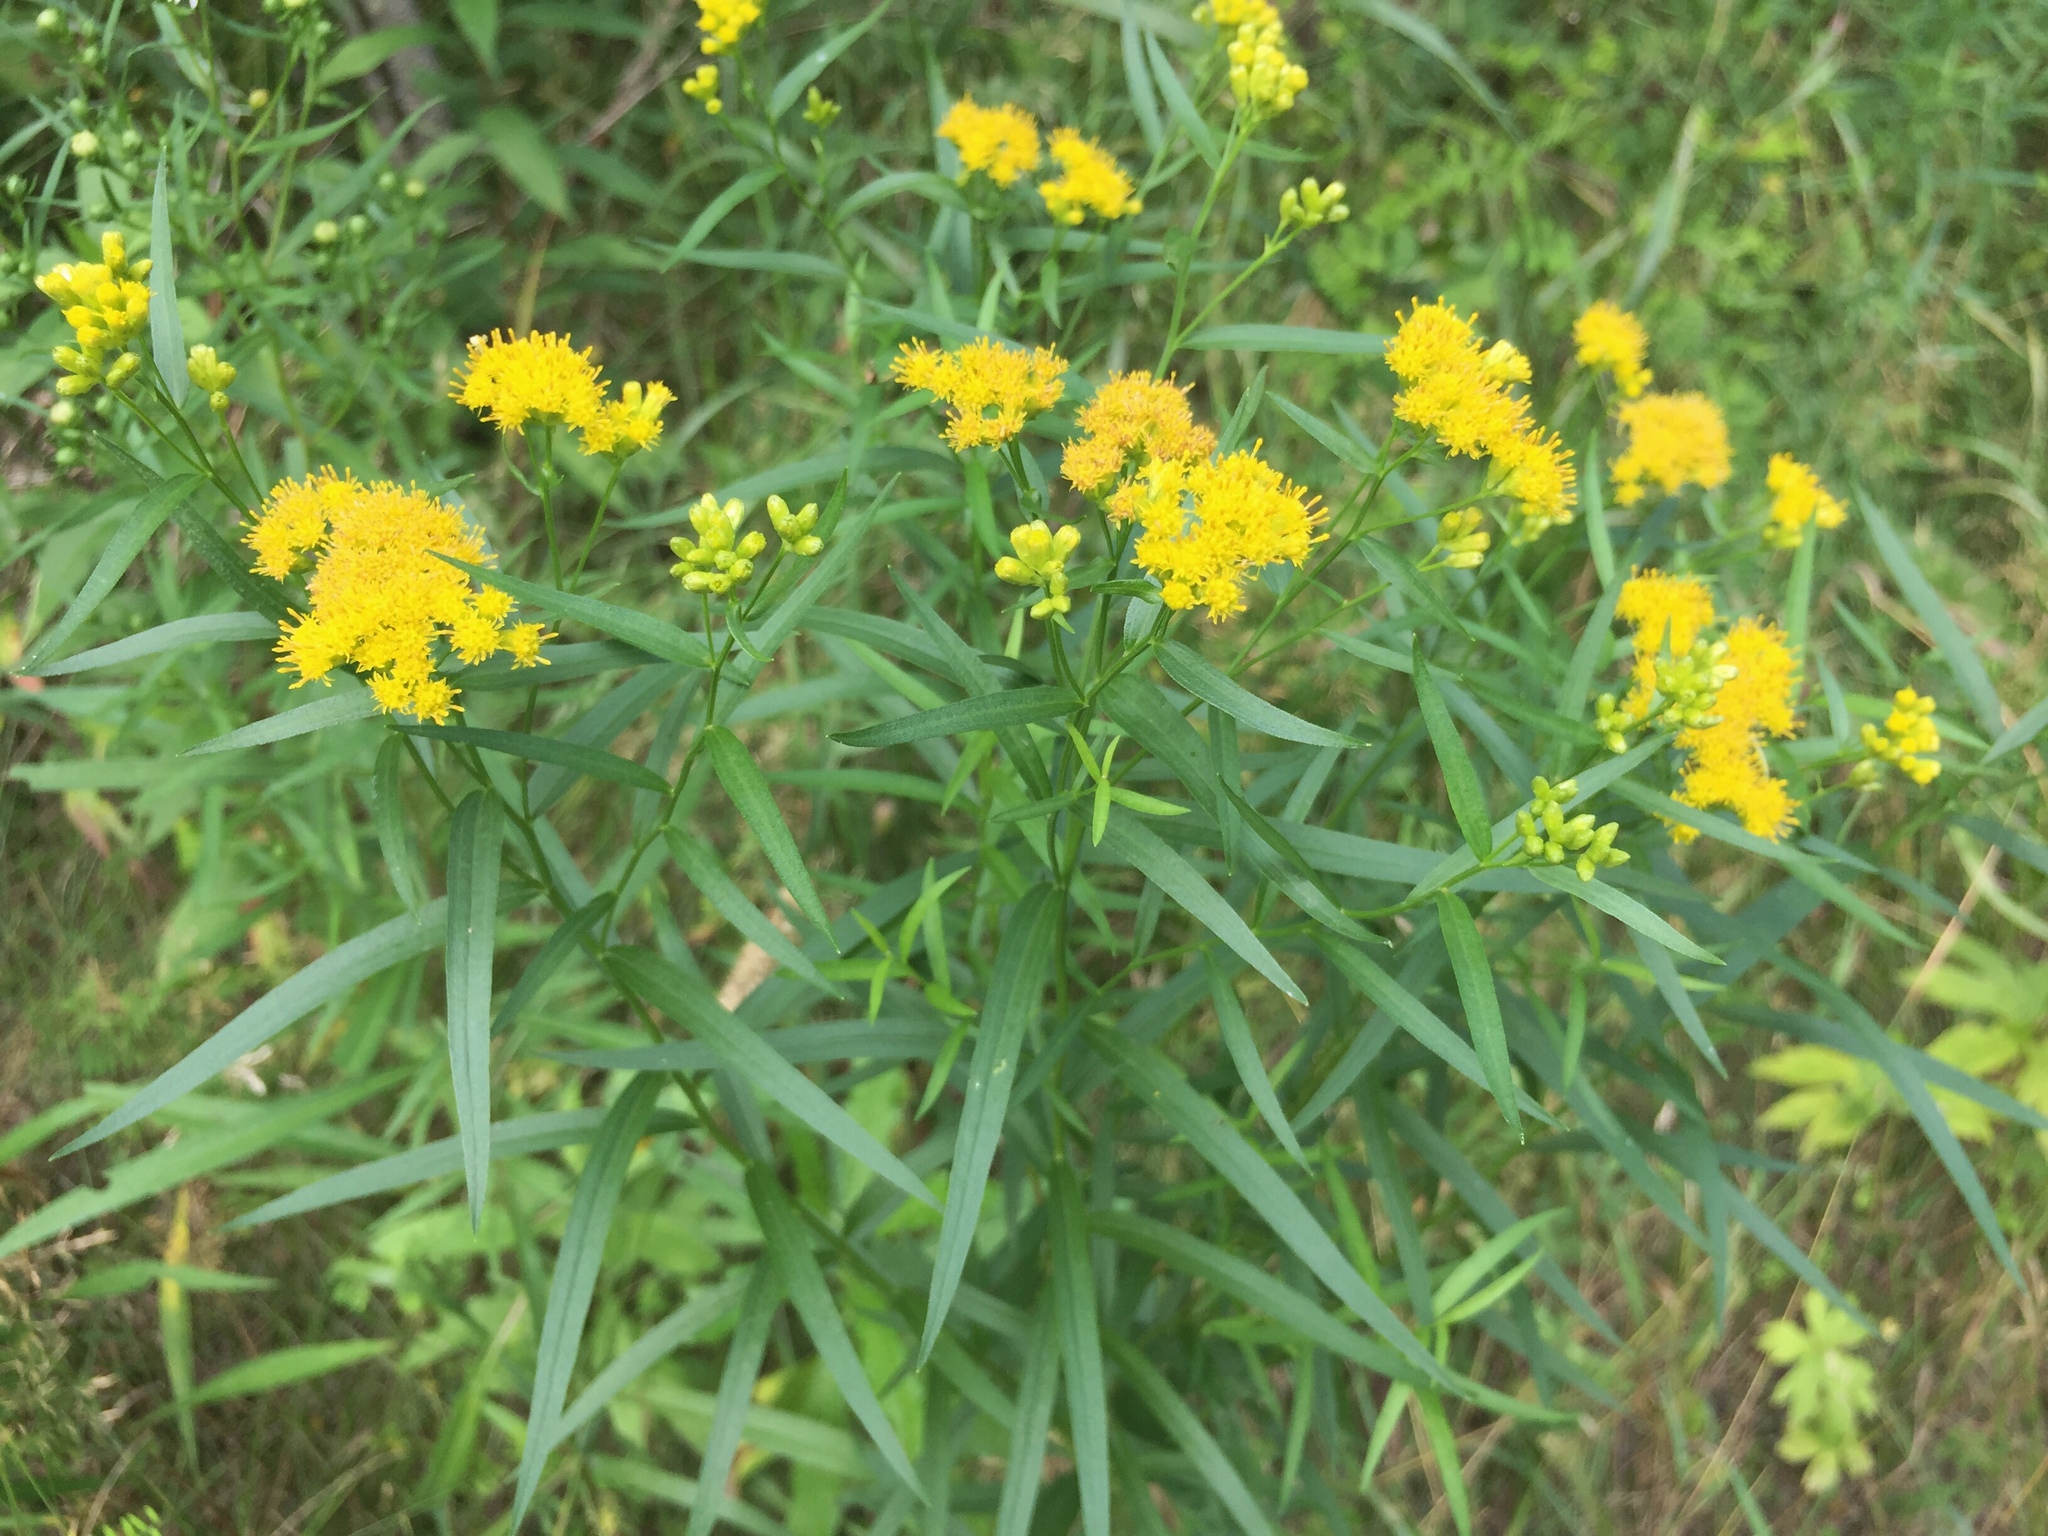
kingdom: Plantae
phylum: Tracheophyta
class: Magnoliopsida
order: Asterales
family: Asteraceae
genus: Euthamia
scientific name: Euthamia graminifolia
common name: Common goldentop
